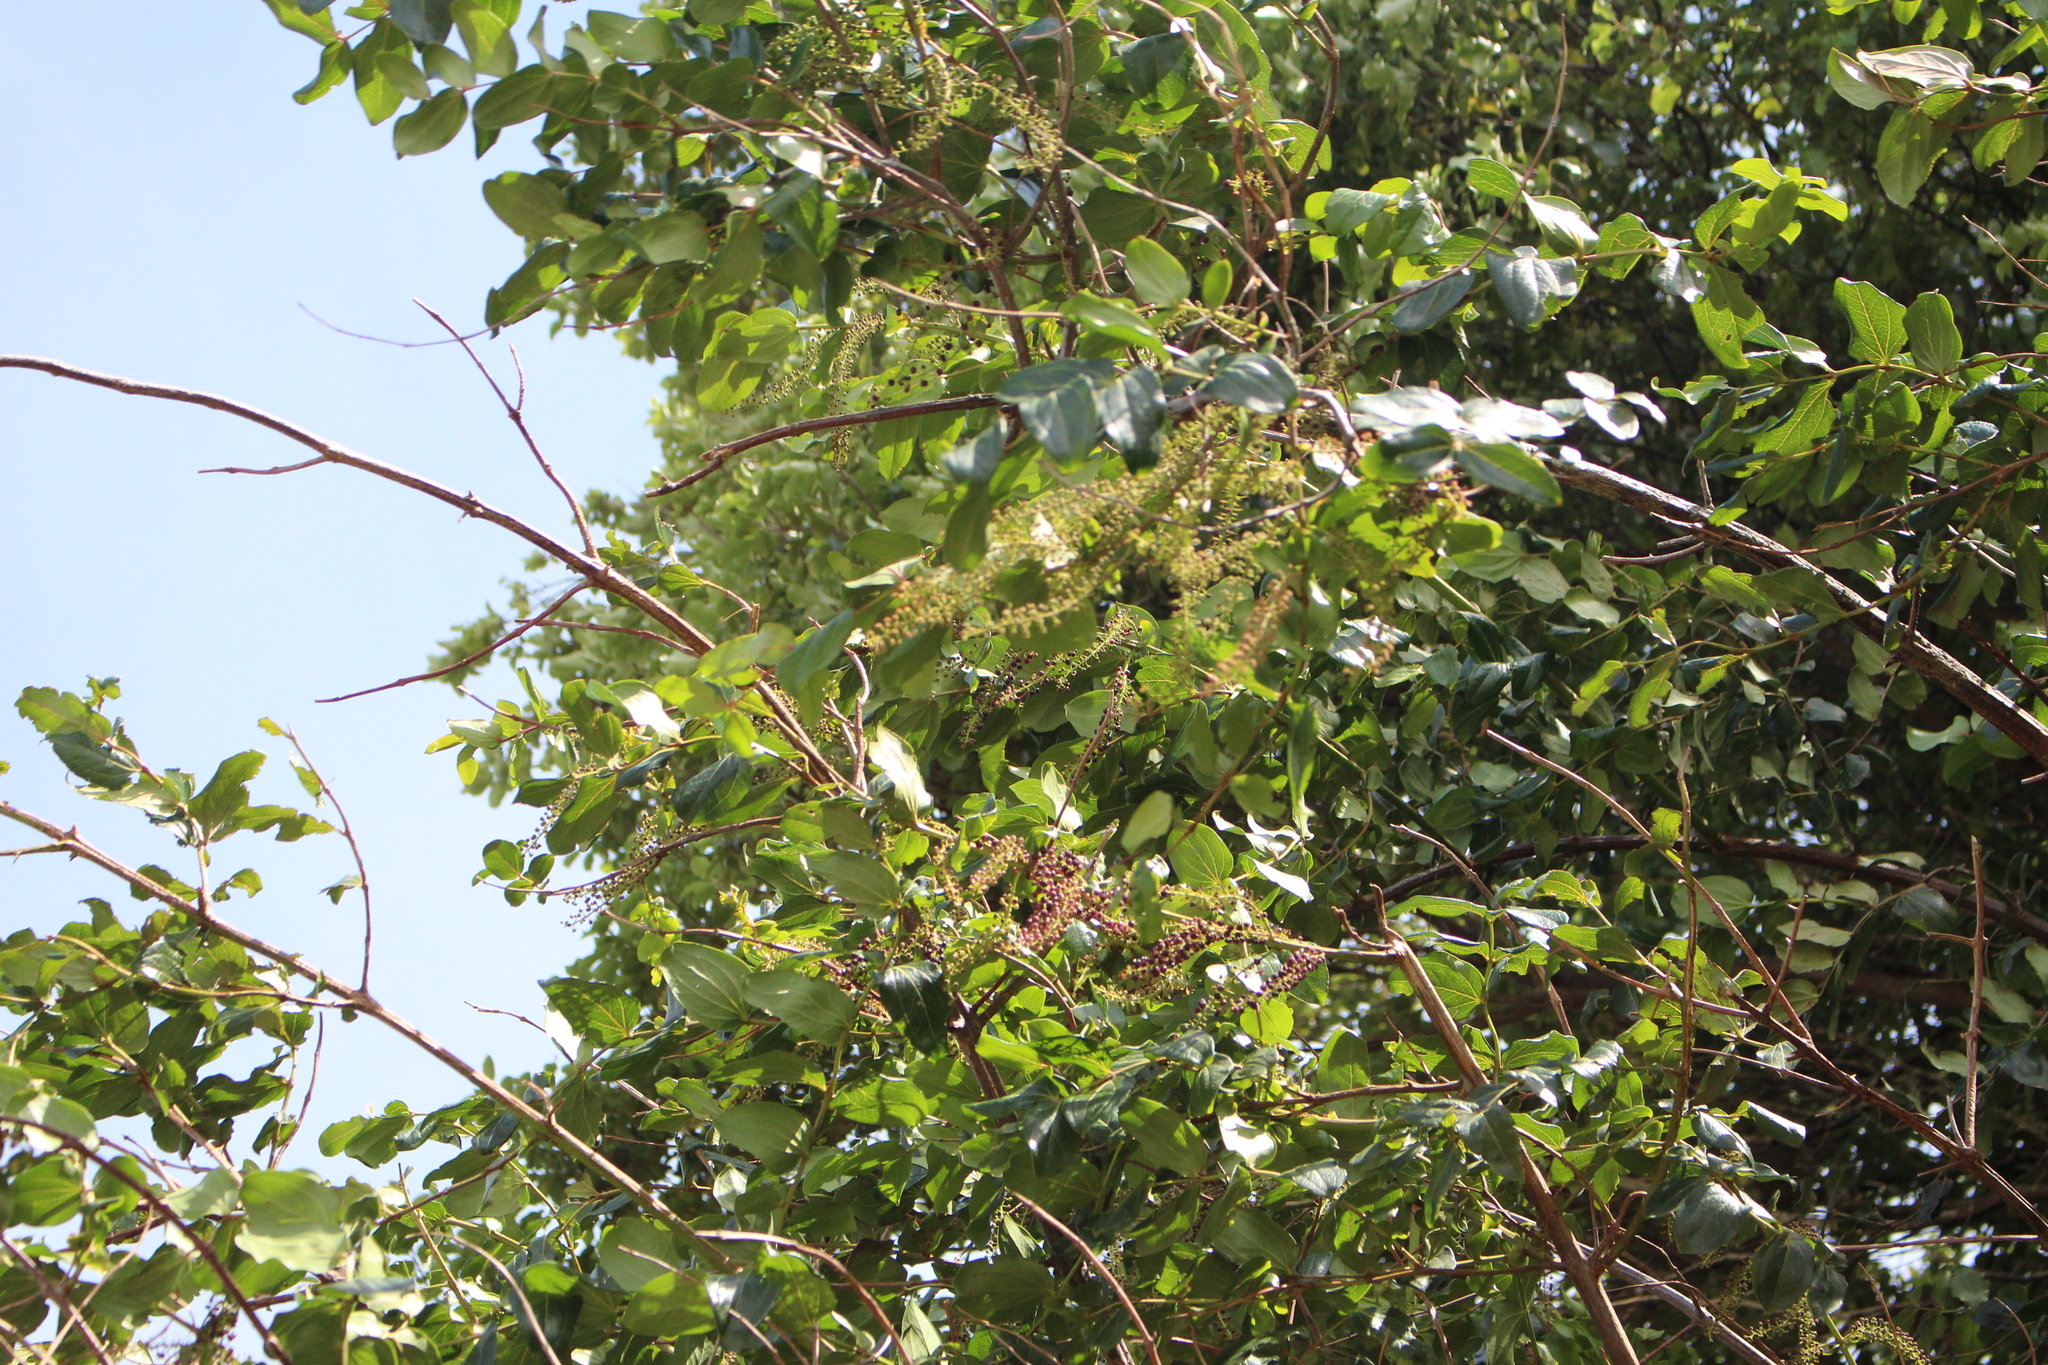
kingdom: Plantae
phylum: Tracheophyta
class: Magnoliopsida
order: Cucurbitales
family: Coriariaceae
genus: Coriaria
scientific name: Coriaria arborea
